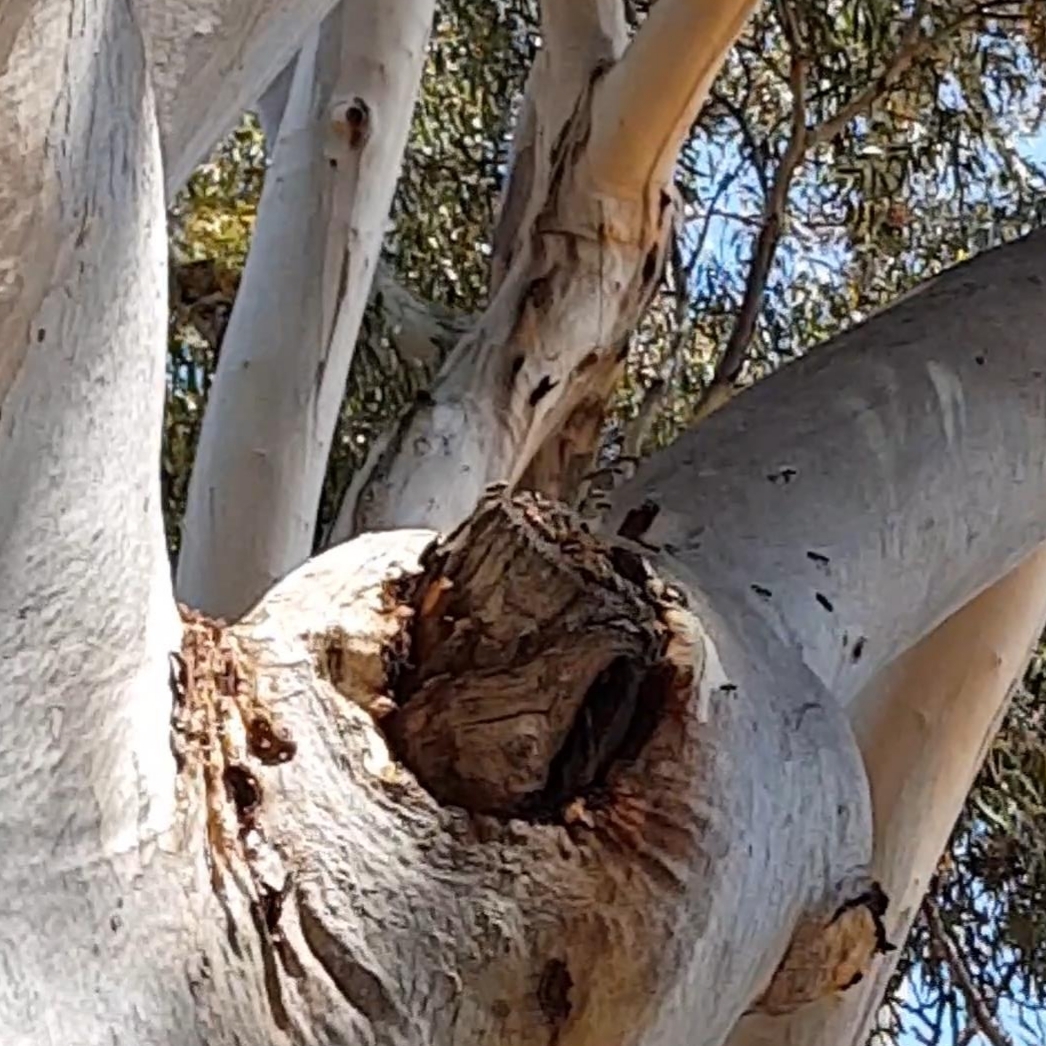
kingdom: Animalia
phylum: Arthropoda
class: Insecta
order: Hymenoptera
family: Apidae
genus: Apis
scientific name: Apis mellifera
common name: Honey bee
